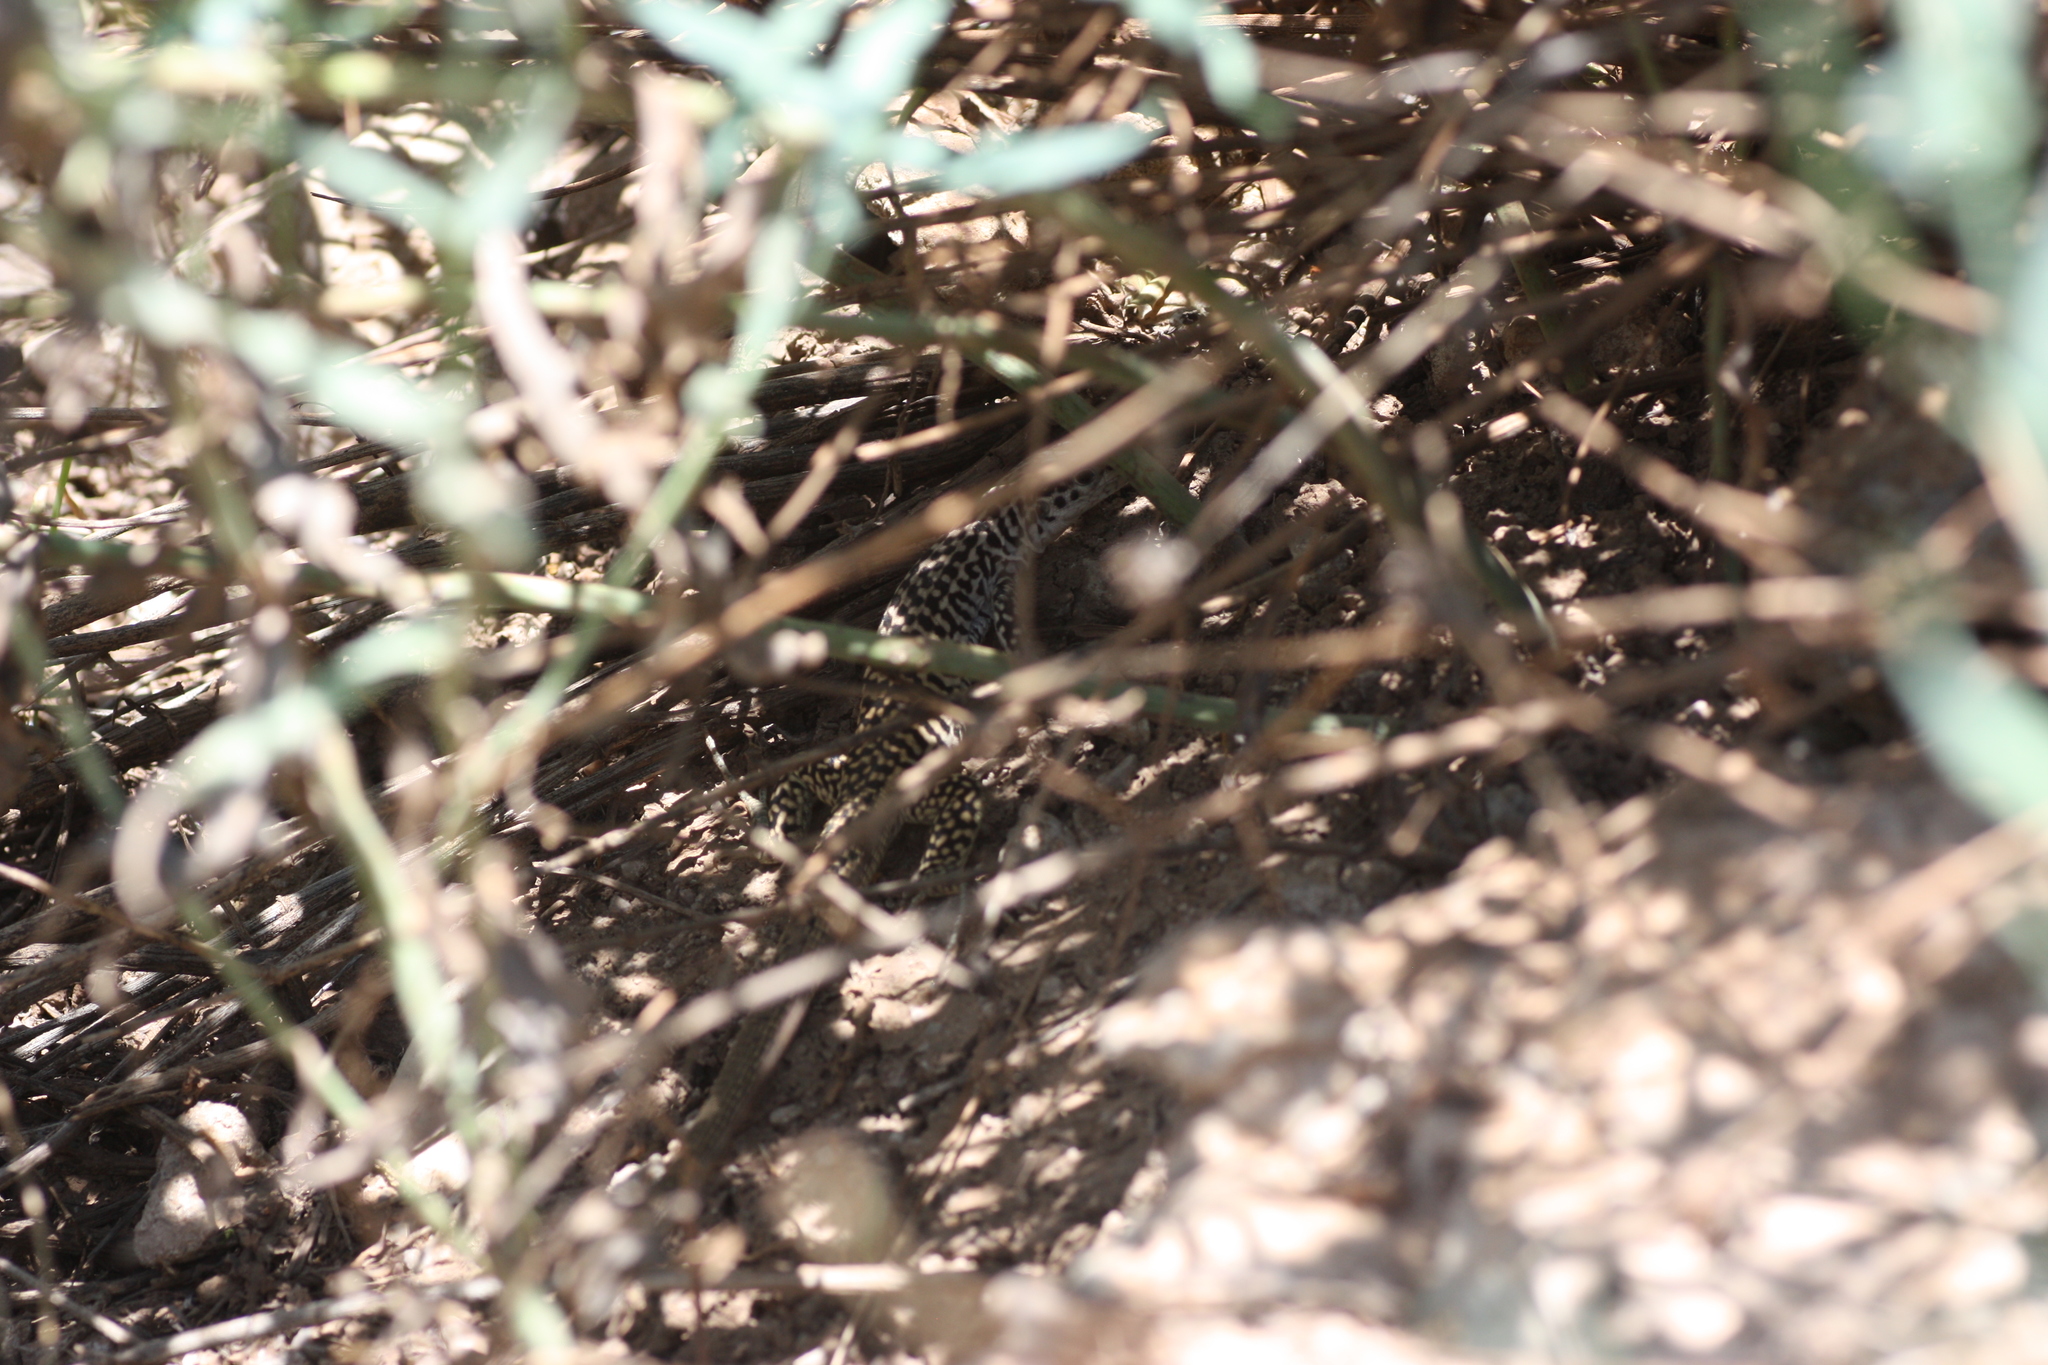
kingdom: Animalia
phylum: Chordata
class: Squamata
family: Teiidae
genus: Aspidoscelis
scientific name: Aspidoscelis tesselatus
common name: Common checkered whiptail [tesselata]
